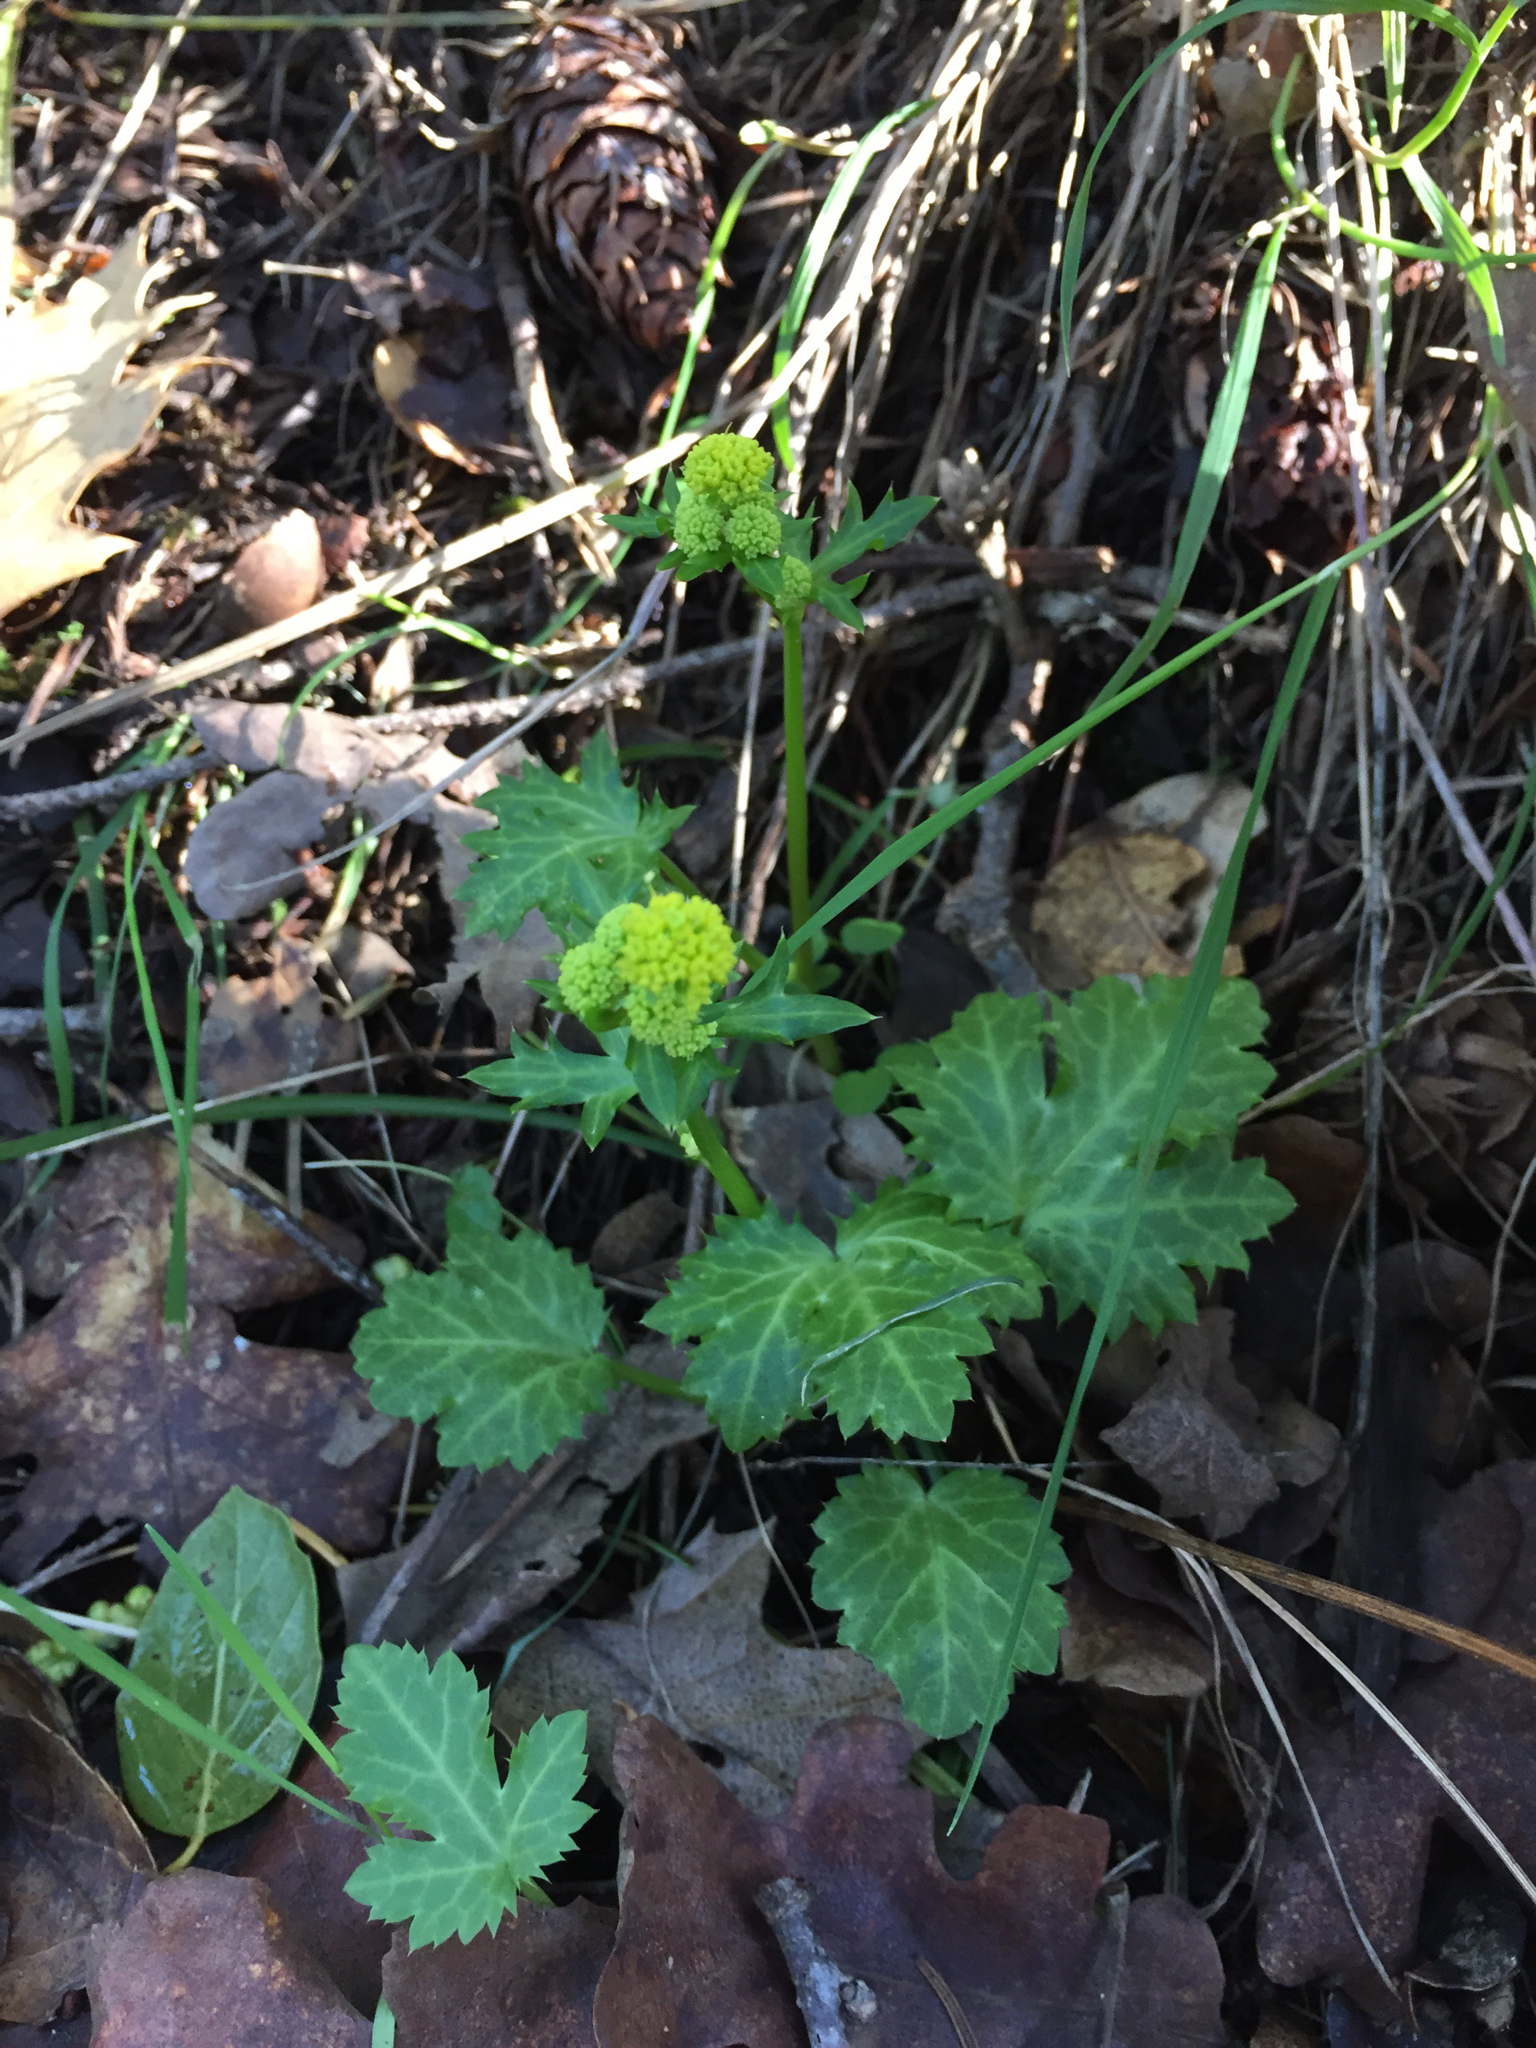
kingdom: Plantae
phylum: Tracheophyta
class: Magnoliopsida
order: Apiales
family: Apiaceae
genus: Sanicula
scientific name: Sanicula laciniata
